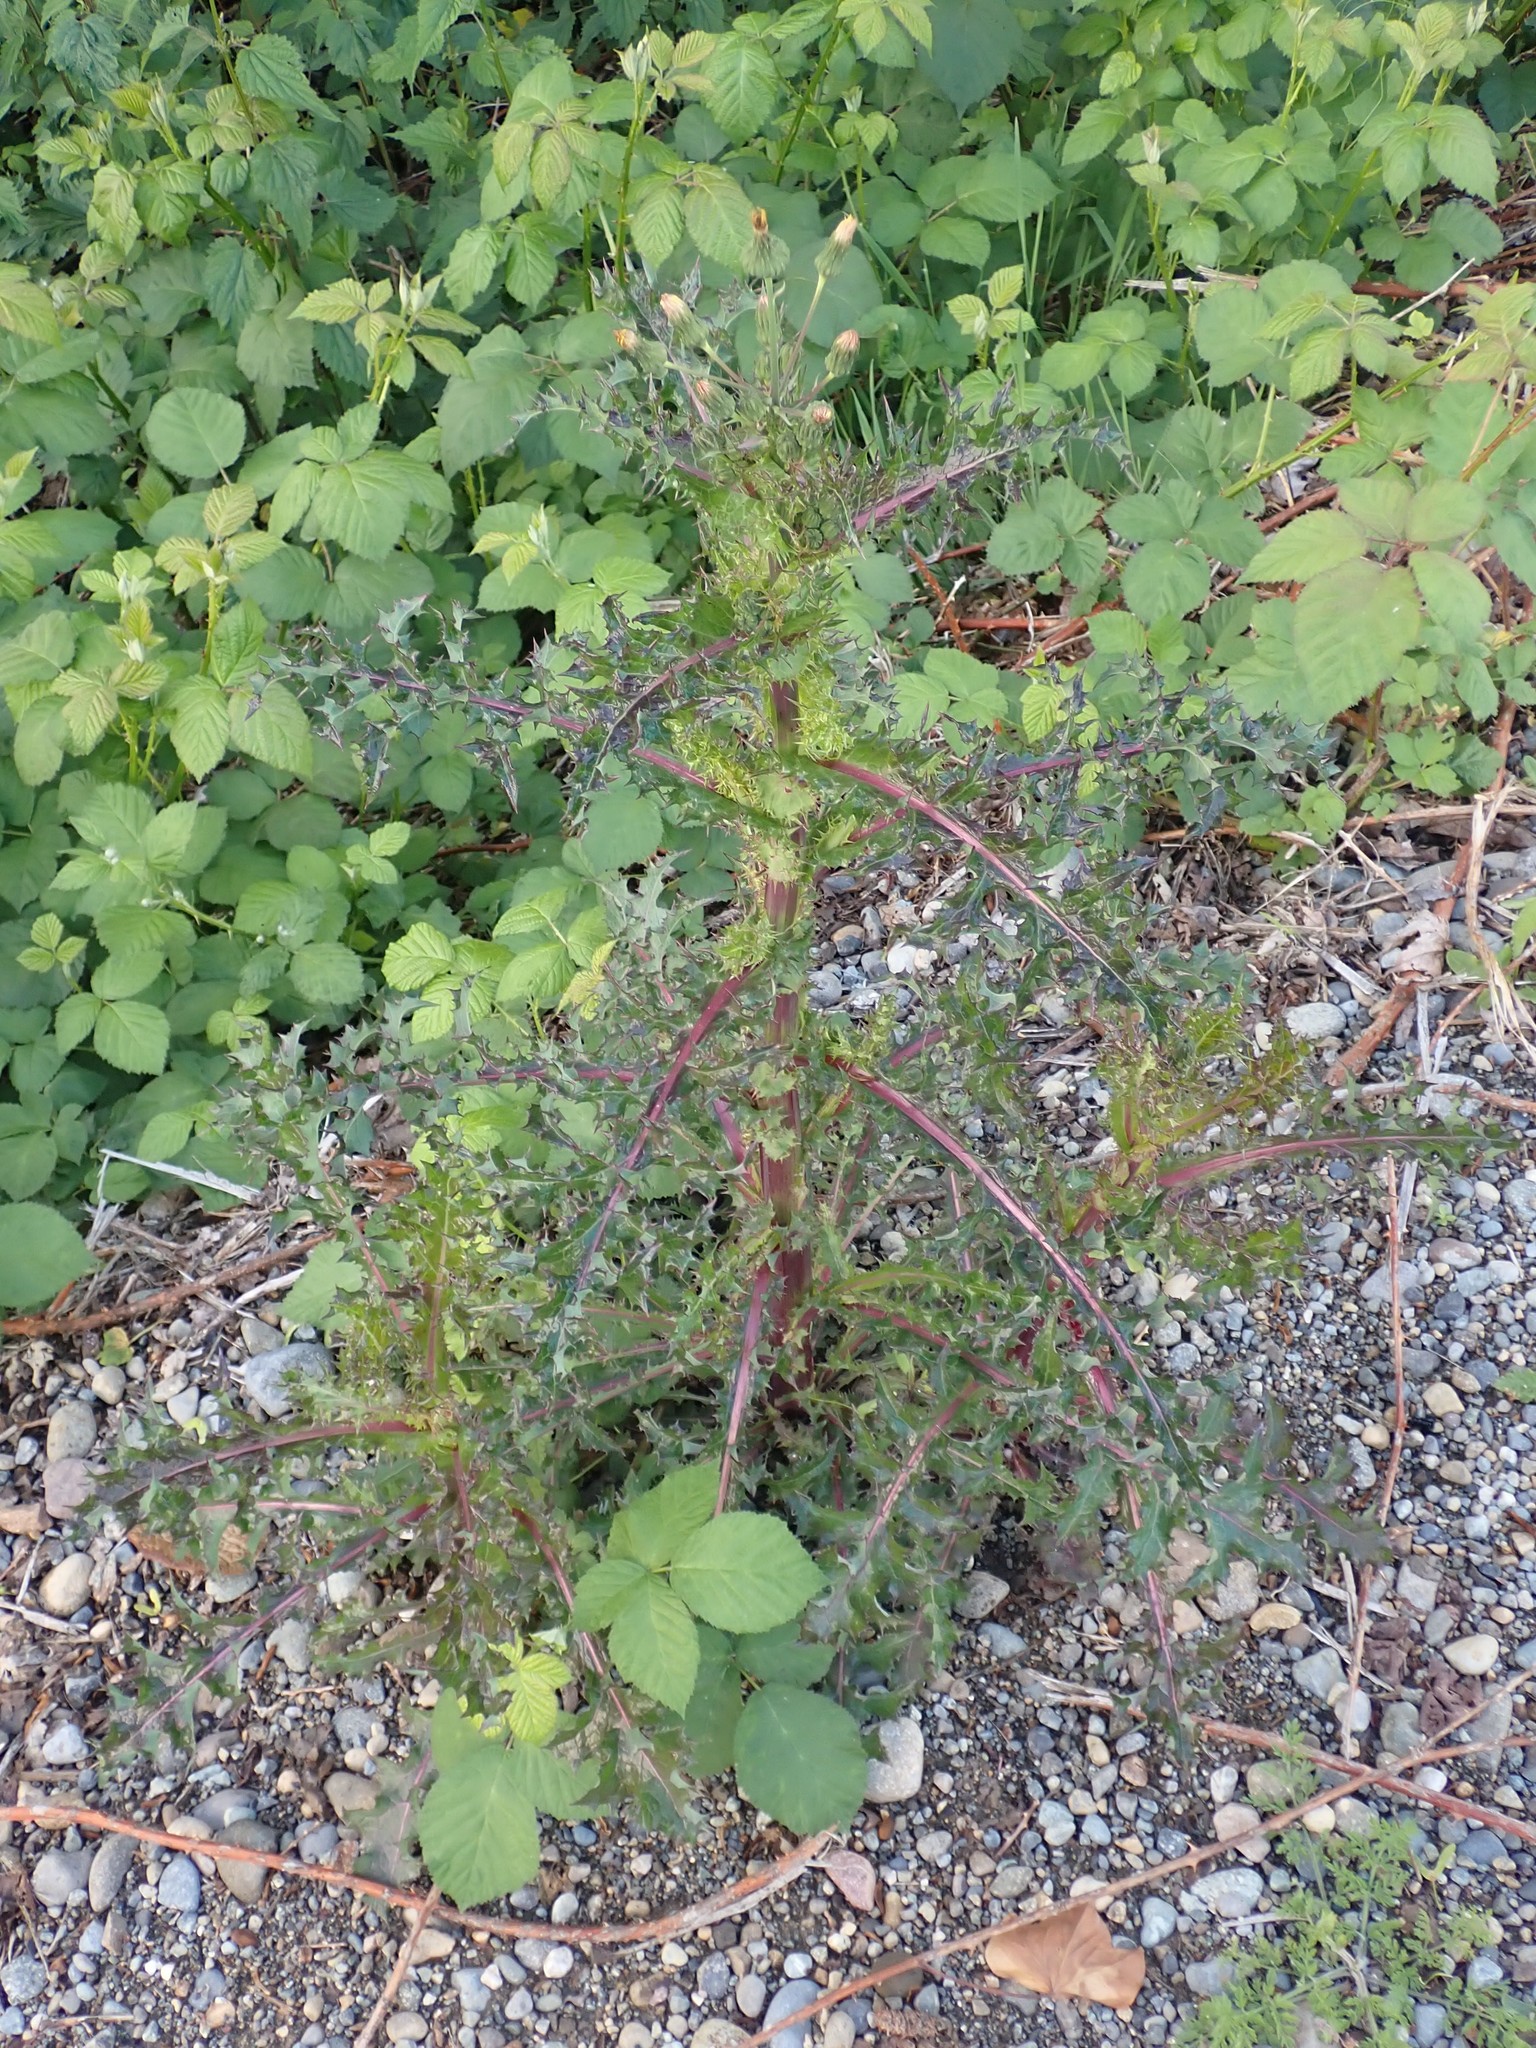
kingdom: Plantae
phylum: Tracheophyta
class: Magnoliopsida
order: Asterales
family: Asteraceae
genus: Sonchus
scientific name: Sonchus asper
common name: Prickly sow-thistle
